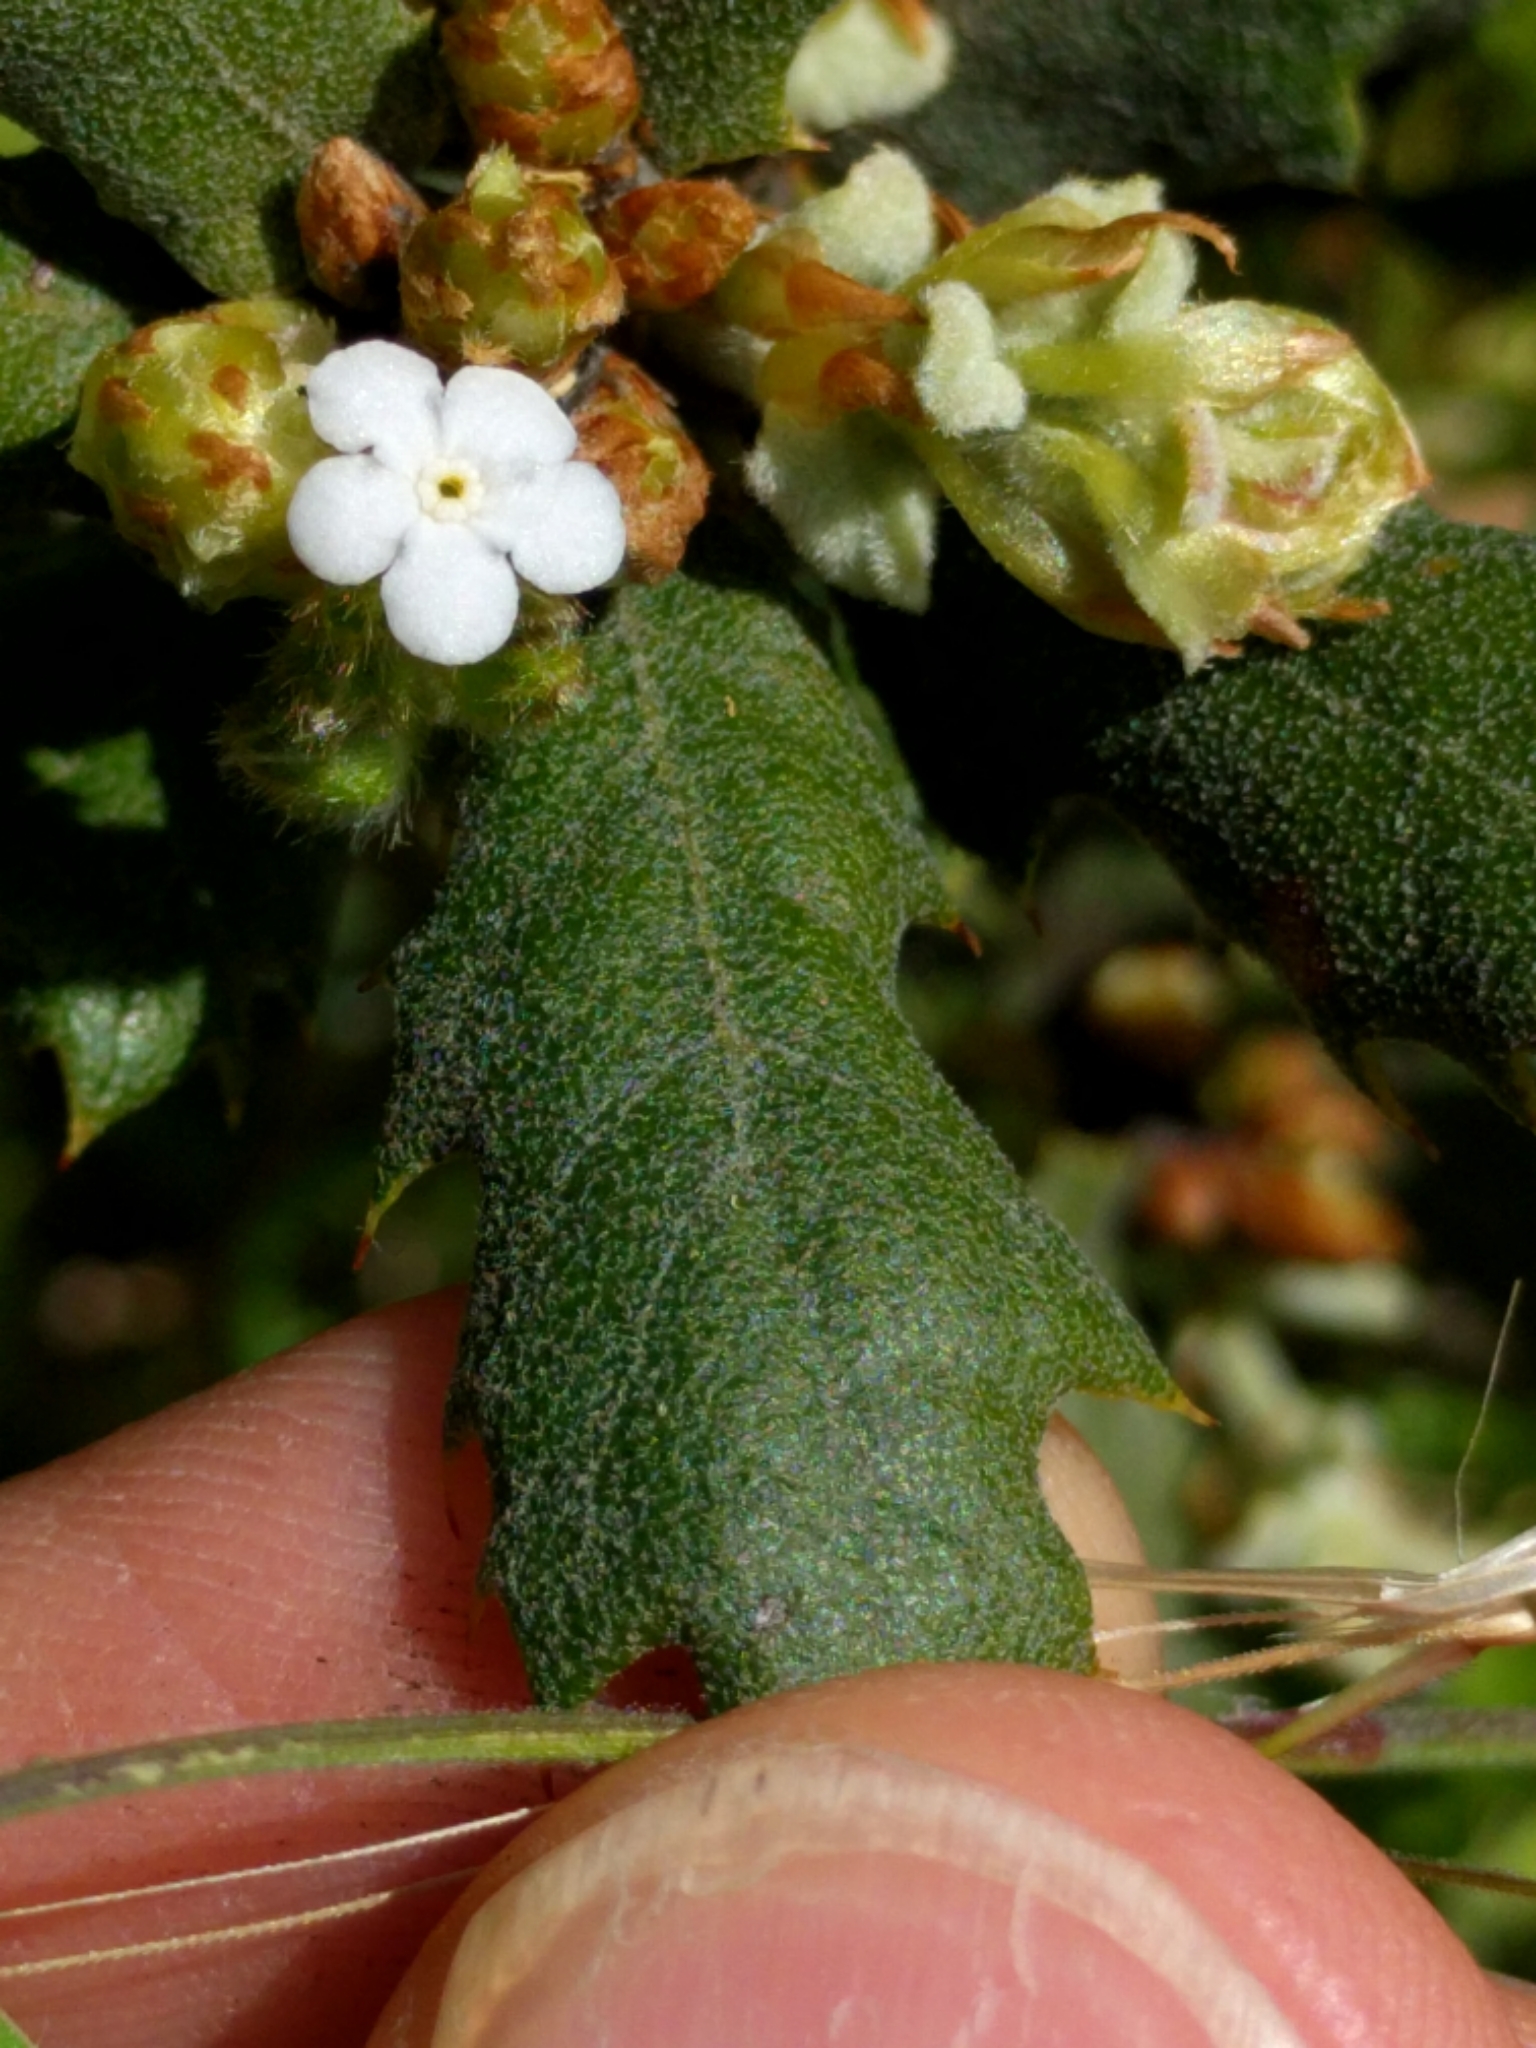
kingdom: Plantae
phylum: Tracheophyta
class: Magnoliopsida
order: Fagales
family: Fagaceae
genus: Quercus
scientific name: Quercus durata
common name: Leather oak
